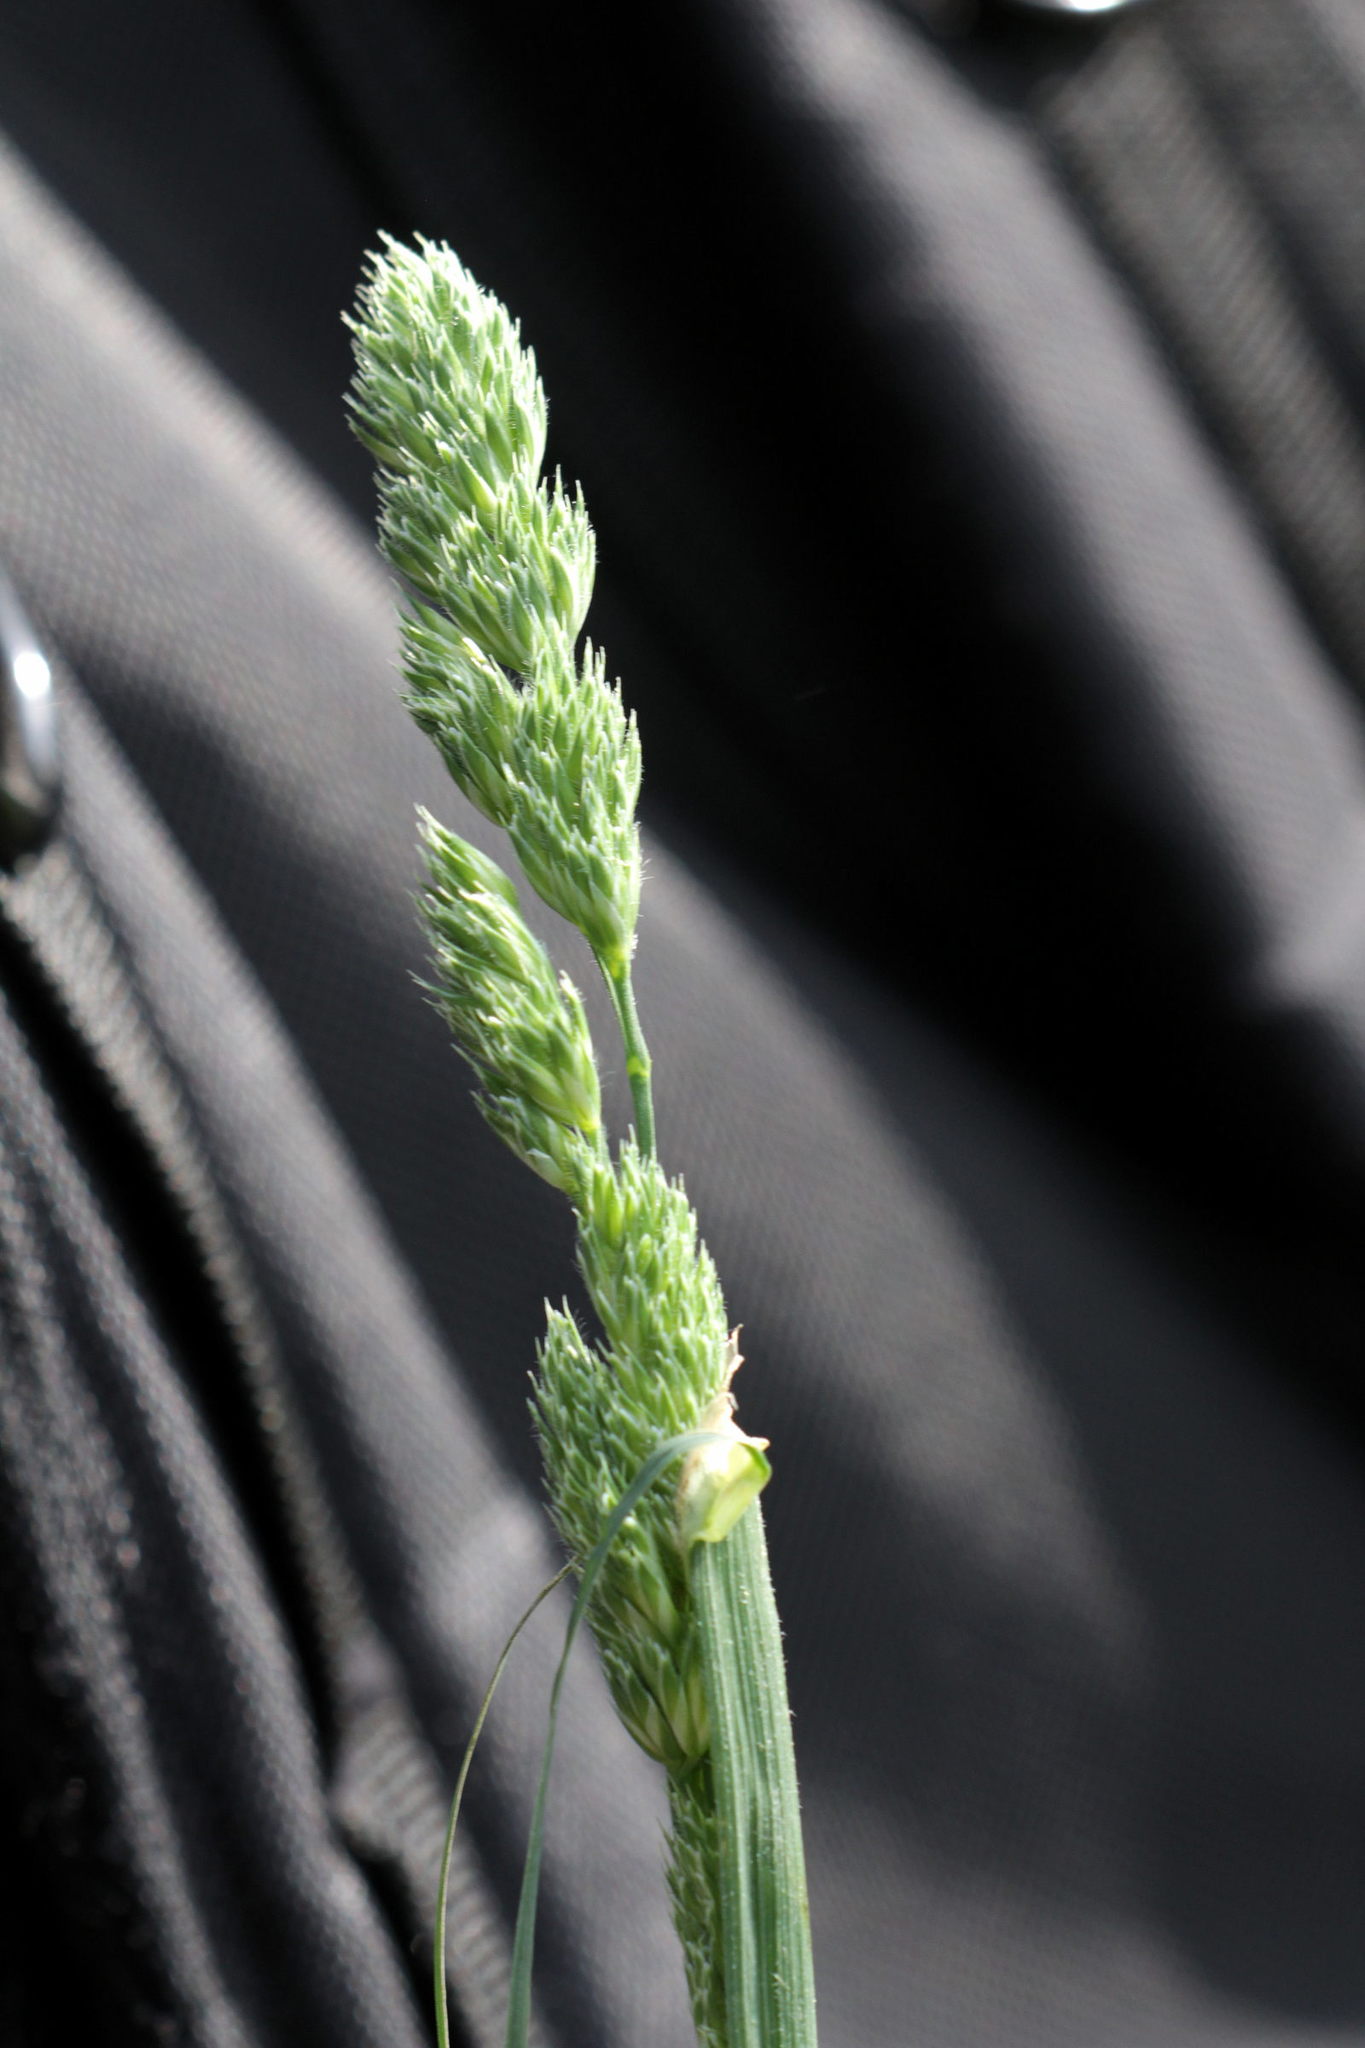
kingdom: Plantae
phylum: Tracheophyta
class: Liliopsida
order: Poales
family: Poaceae
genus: Dactylis
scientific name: Dactylis glomerata
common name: Orchardgrass
